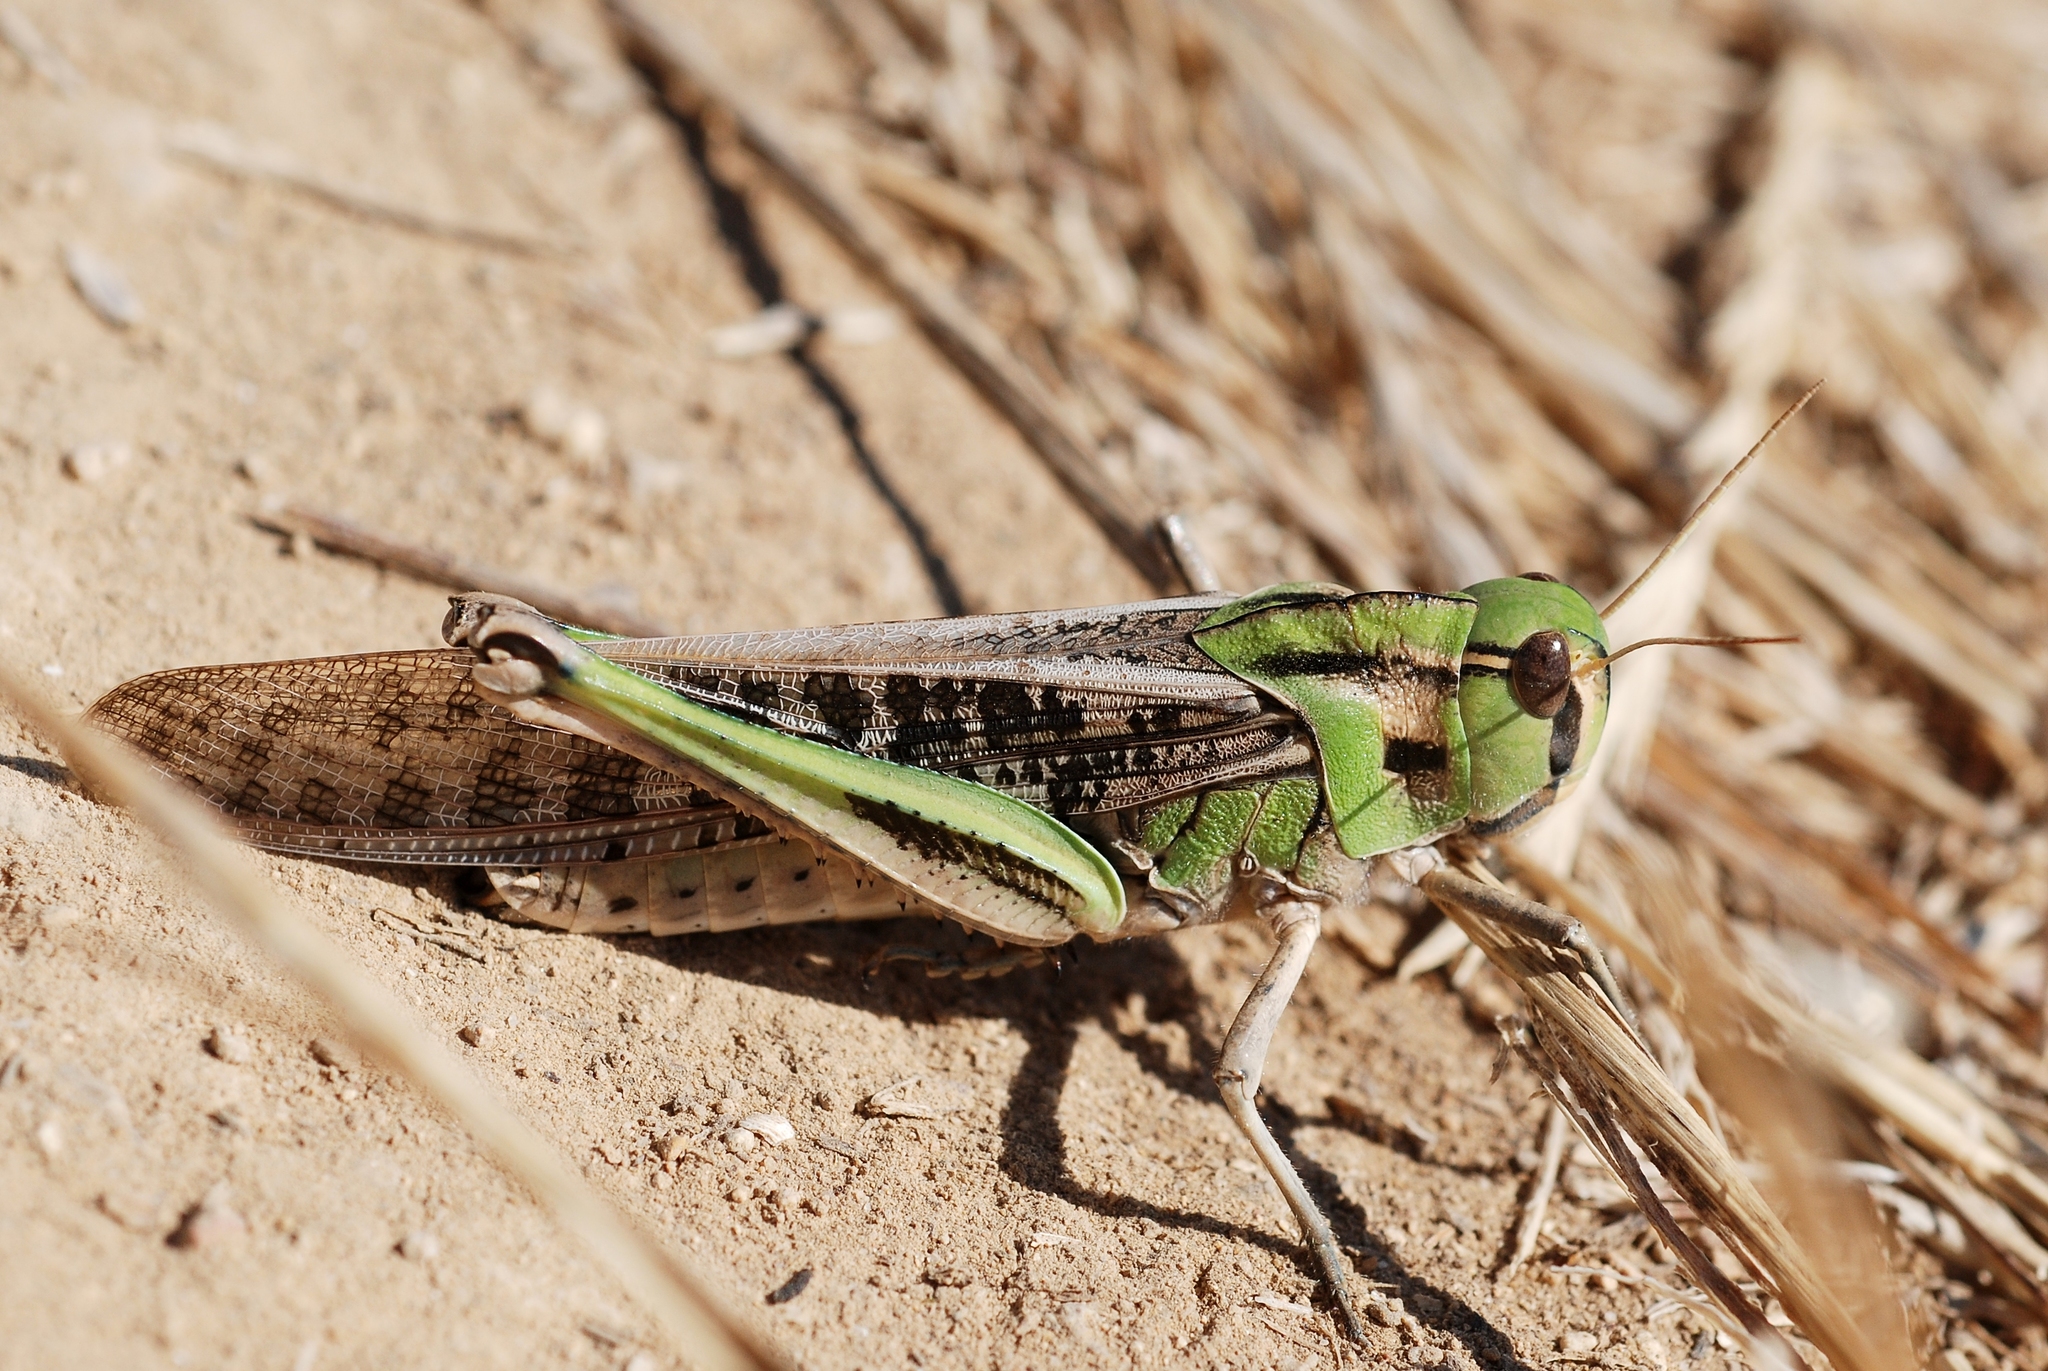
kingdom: Animalia
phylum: Arthropoda
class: Insecta
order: Orthoptera
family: Acrididae
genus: Locusta
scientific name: Locusta migratoria
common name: Migratory locust
